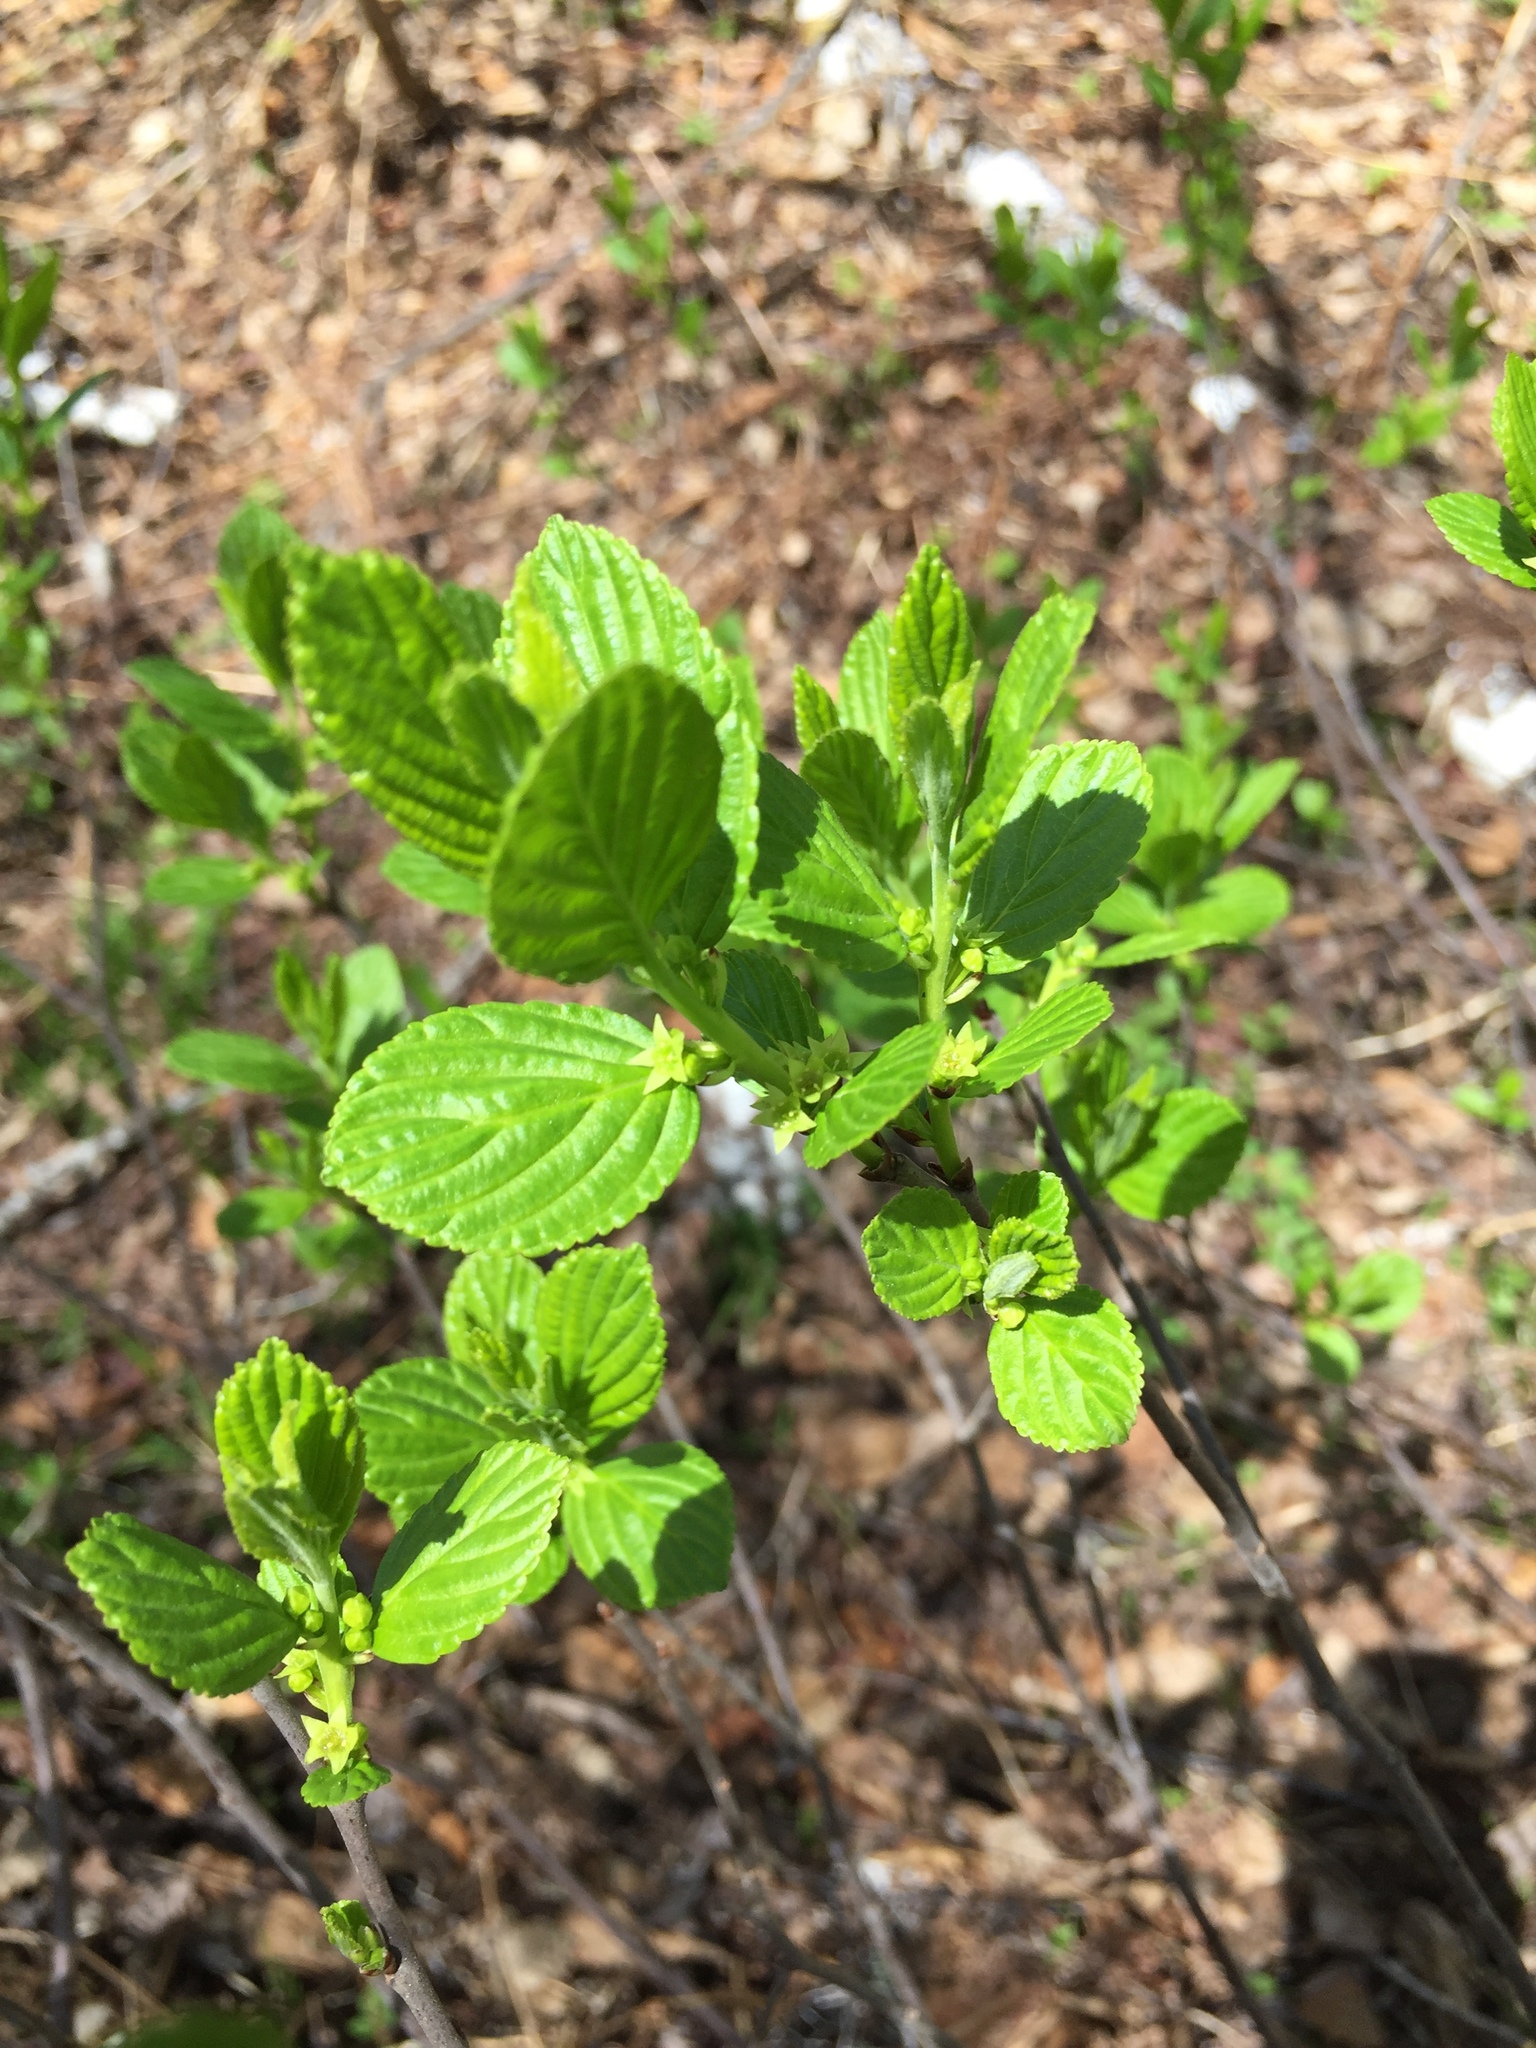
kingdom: Plantae
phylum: Tracheophyta
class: Magnoliopsida
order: Rosales
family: Rhamnaceae
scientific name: Rhamnaceae
